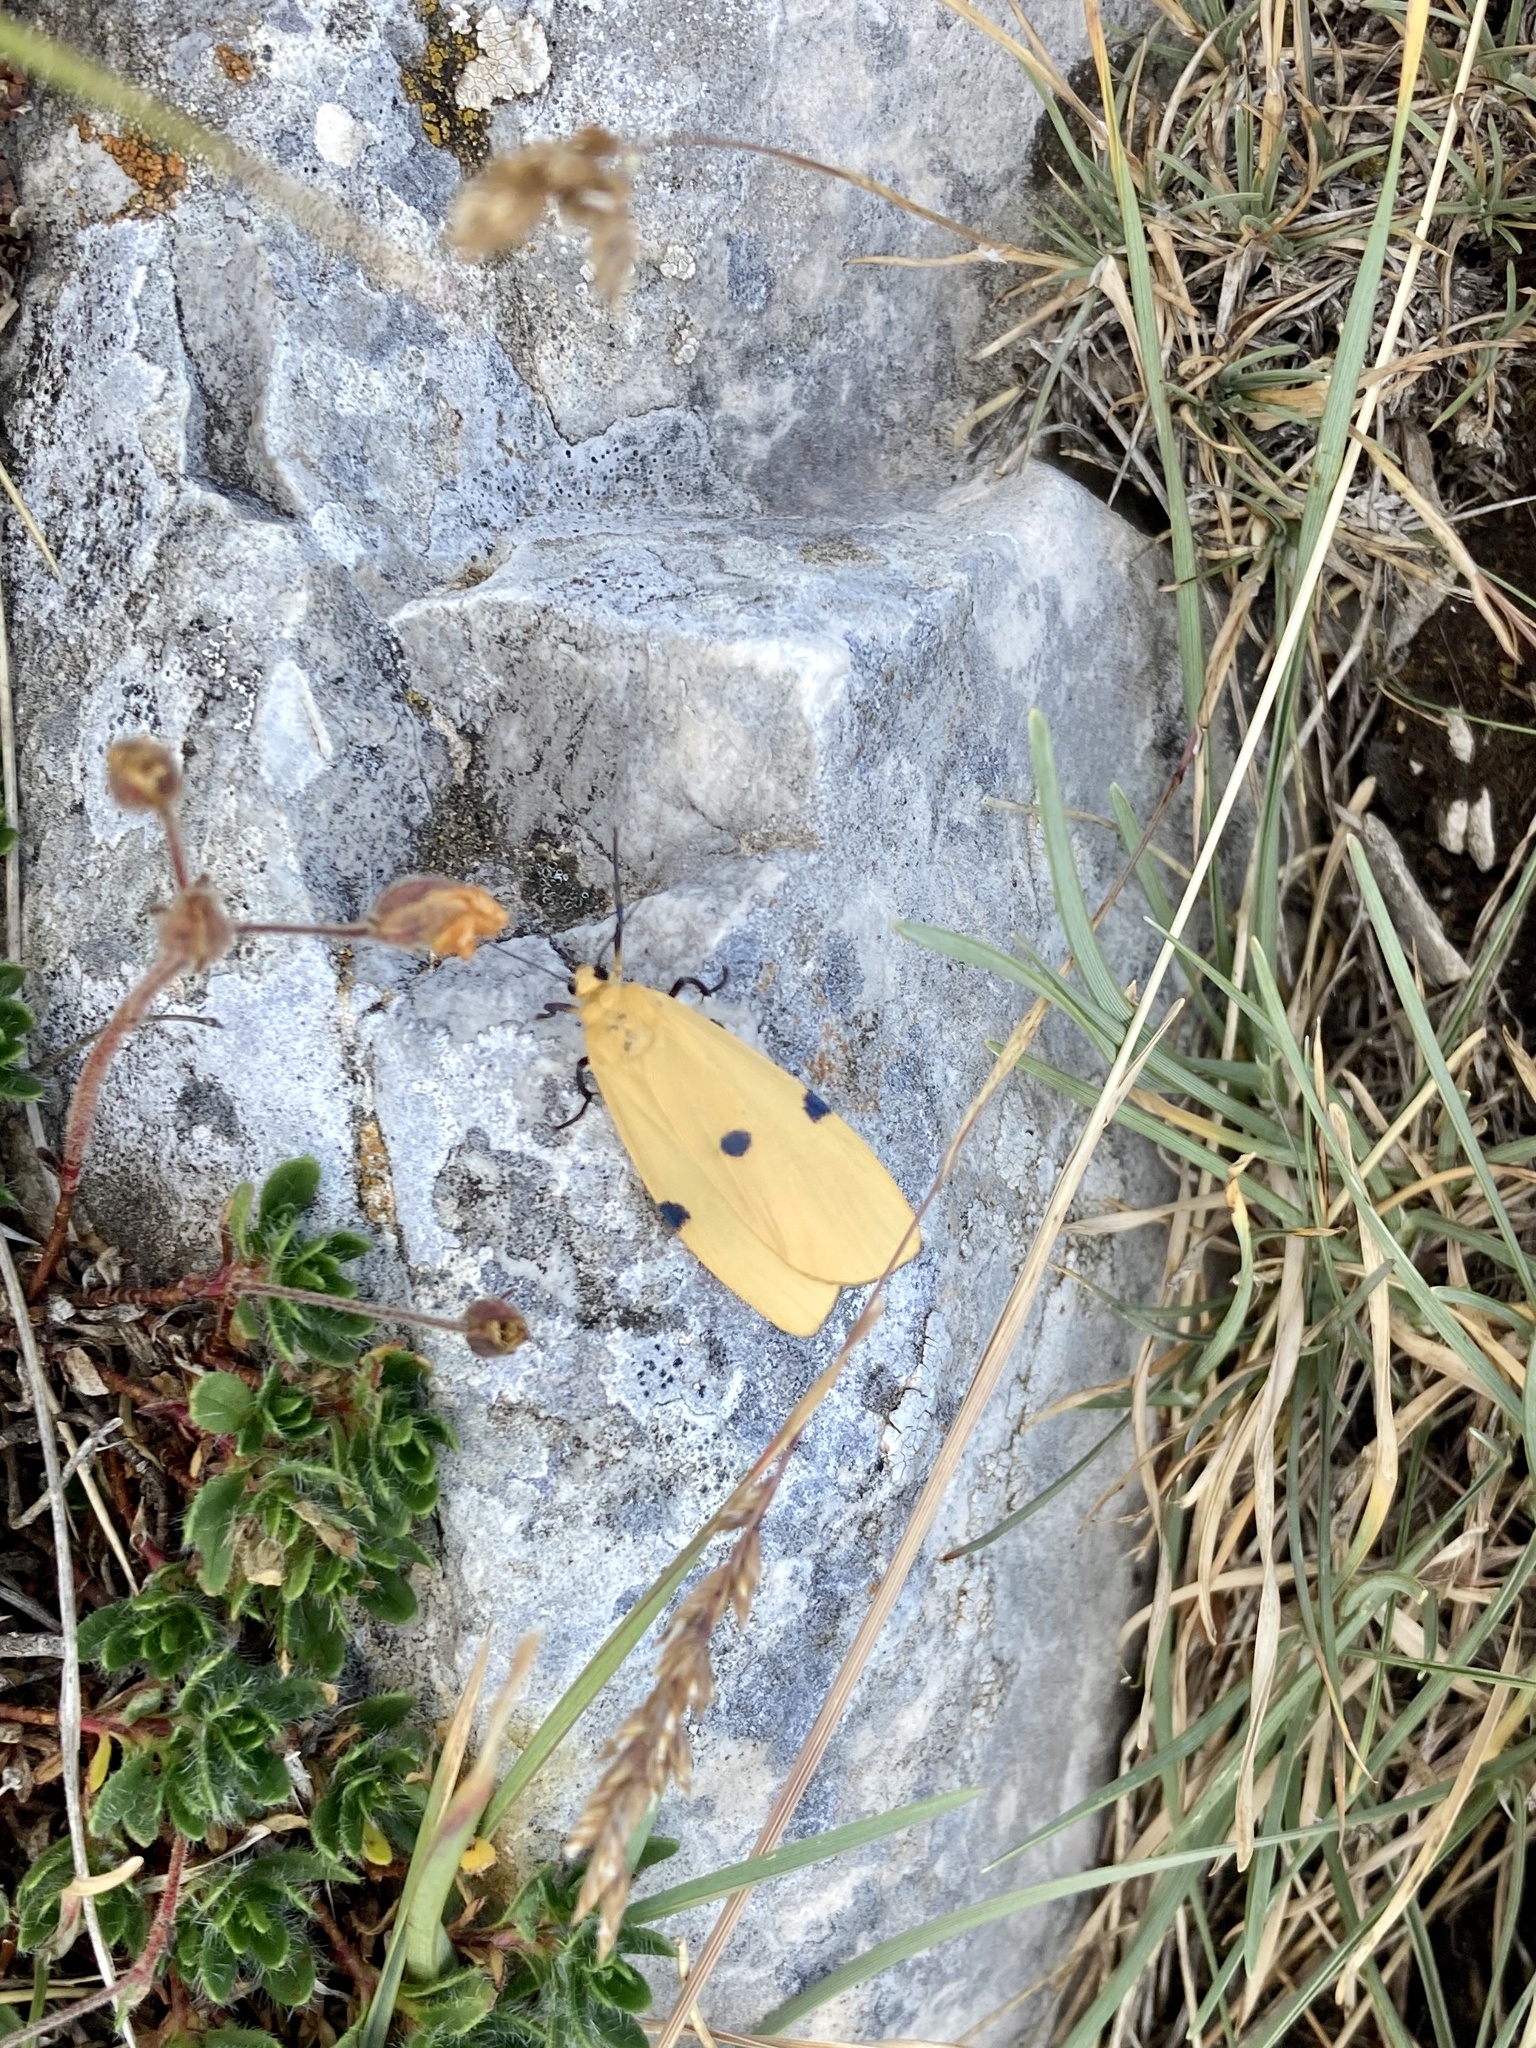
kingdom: Animalia
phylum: Arthropoda
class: Insecta
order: Lepidoptera
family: Erebidae
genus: Lithosia
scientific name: Lithosia quadra
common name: Four-spotted footman
